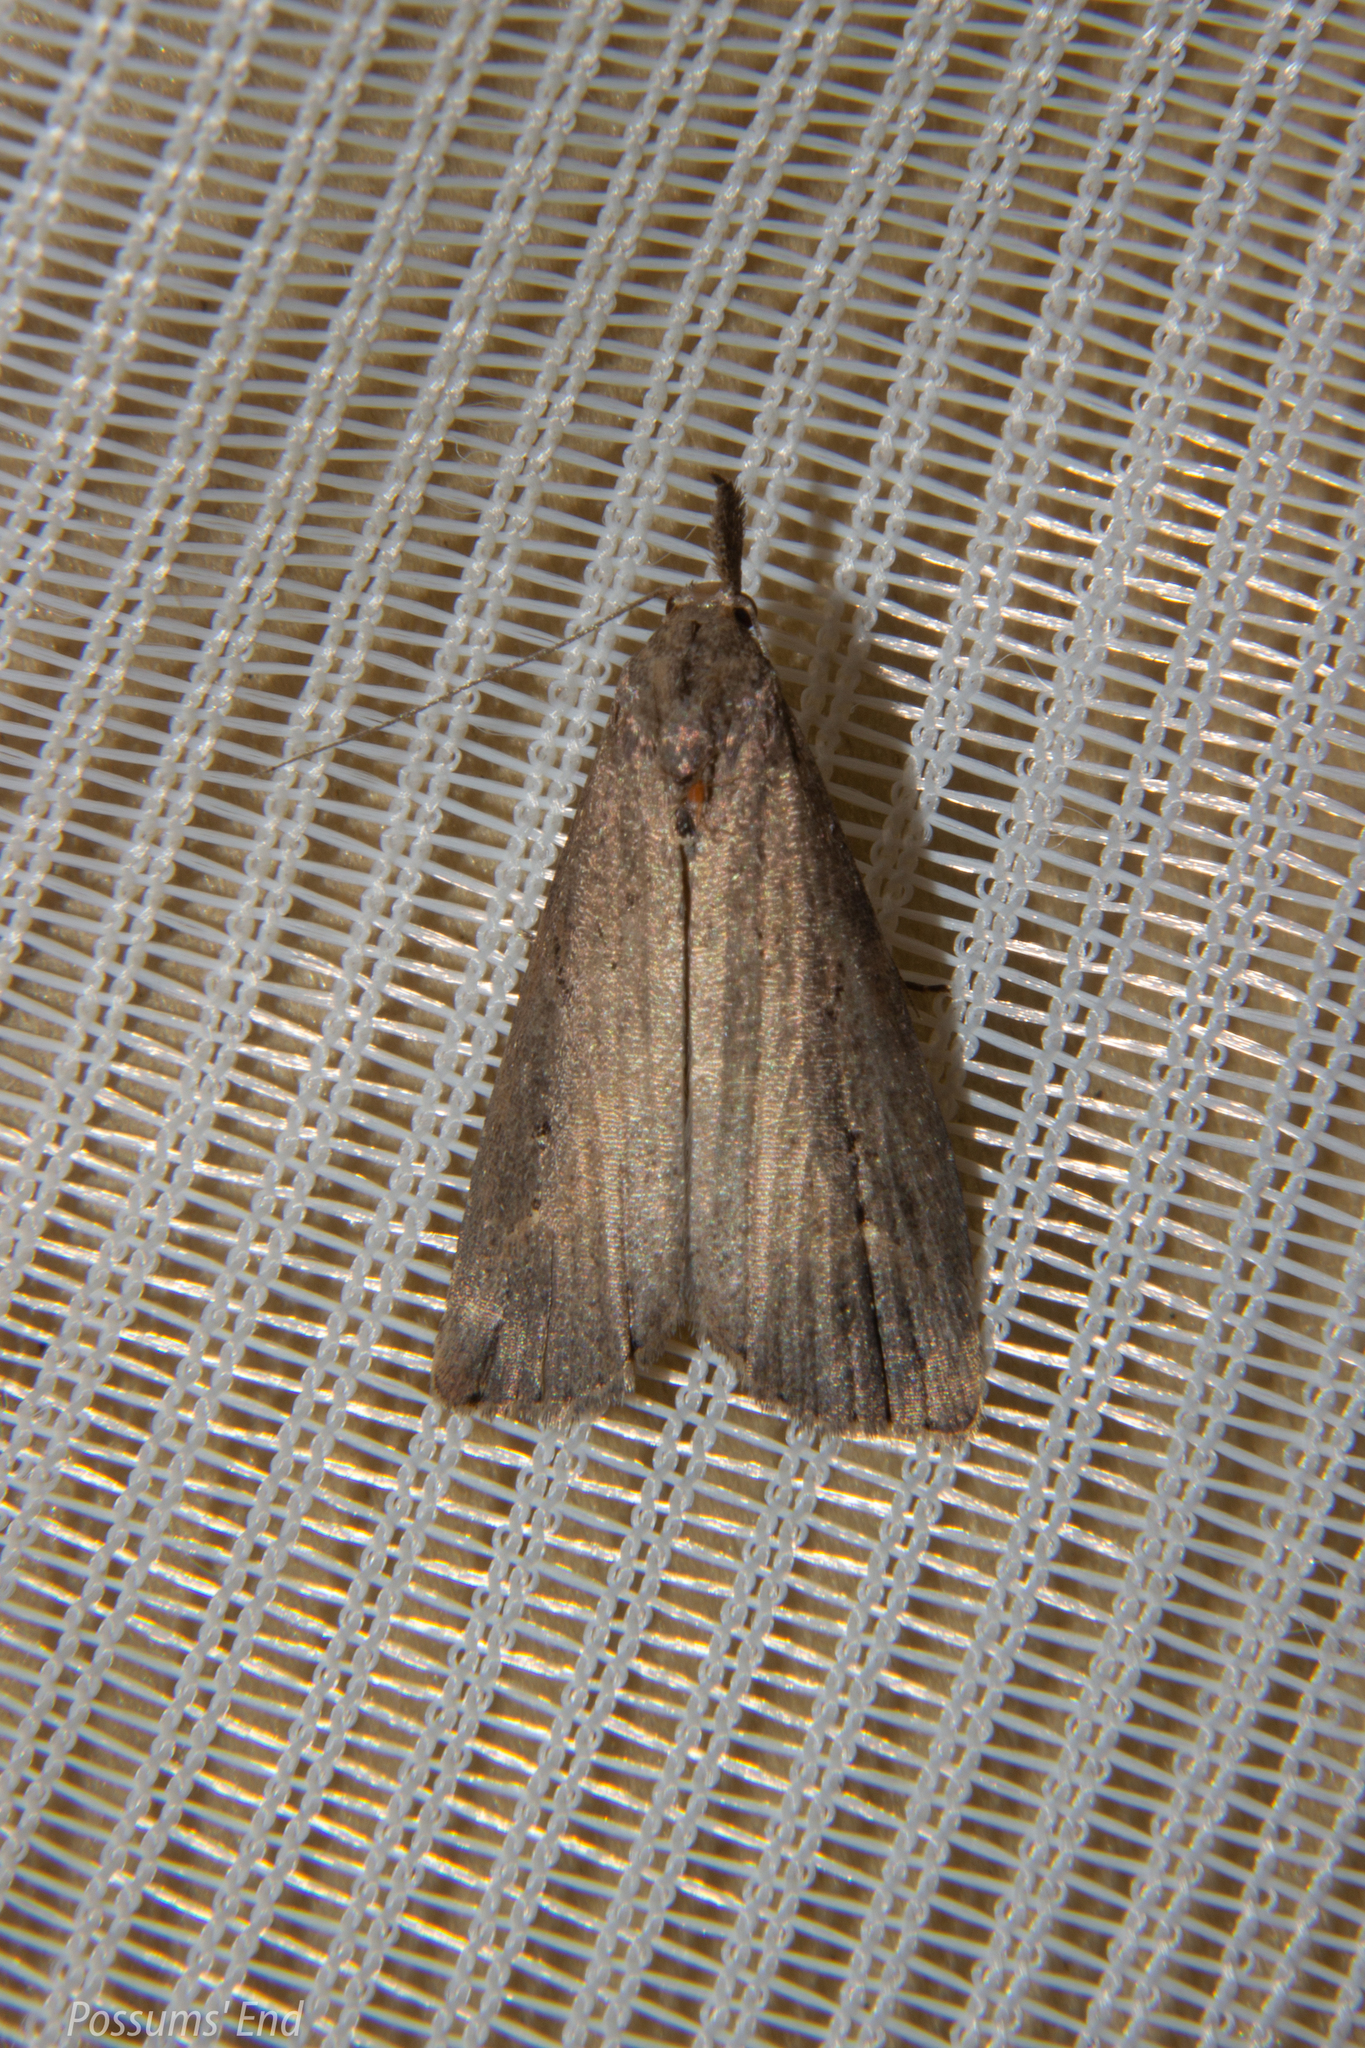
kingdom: Animalia
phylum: Arthropoda
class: Insecta
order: Lepidoptera
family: Erebidae
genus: Schrankia
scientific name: Schrankia costaestrigalis
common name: Pinion-streaked snout
